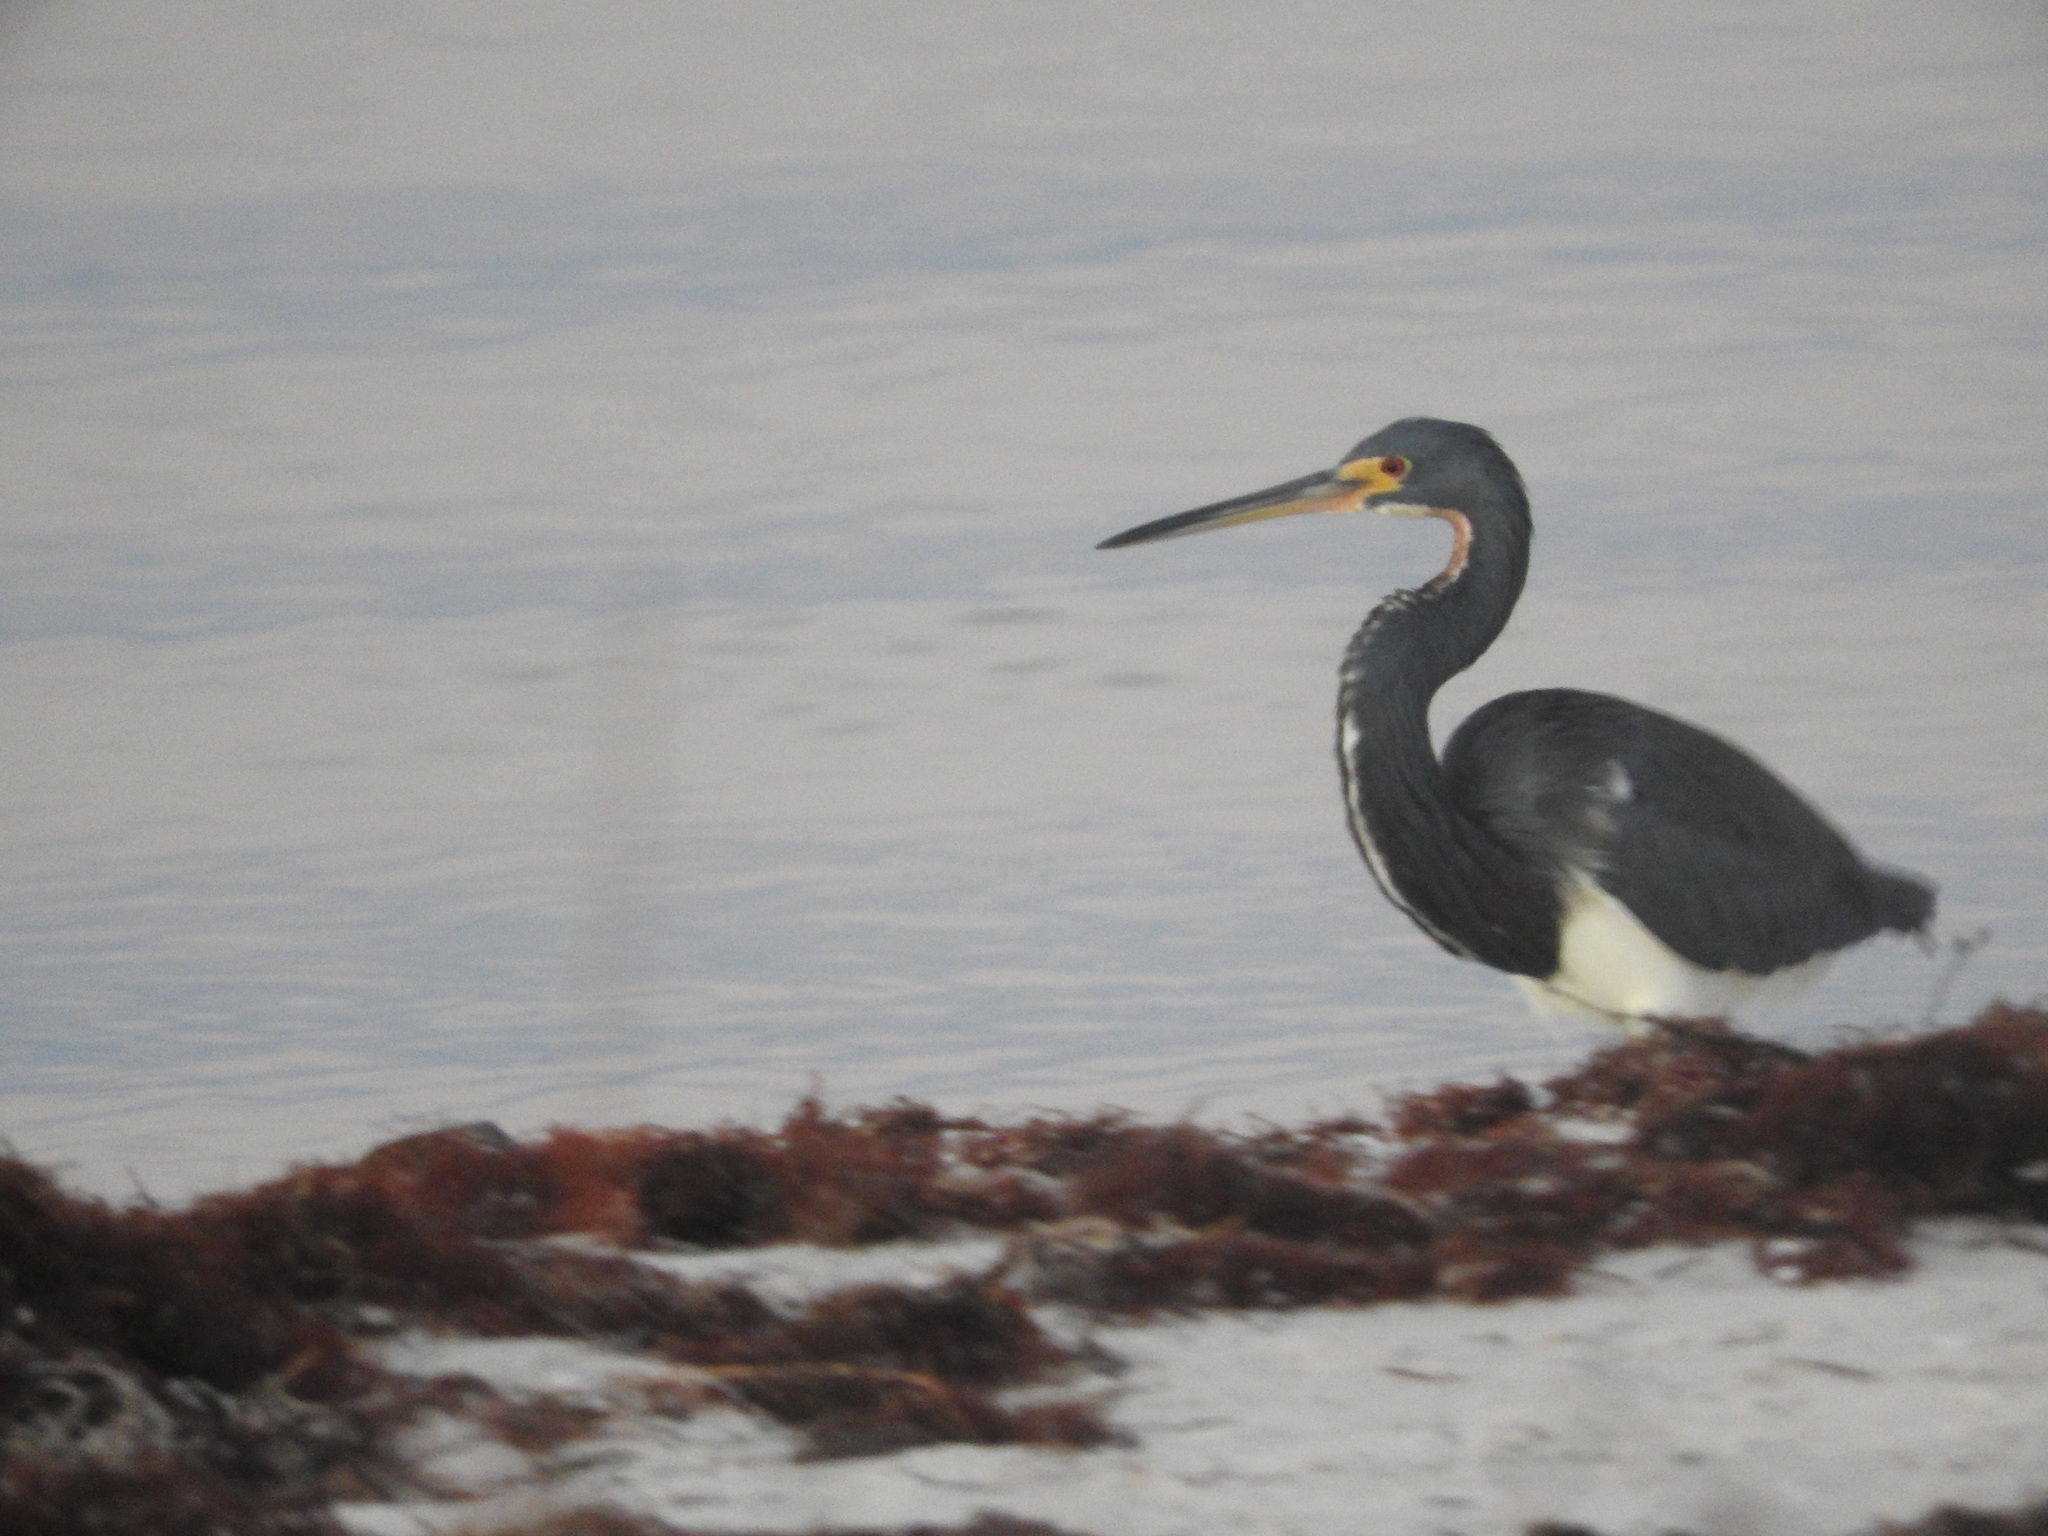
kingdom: Animalia
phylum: Chordata
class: Aves
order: Pelecaniformes
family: Ardeidae
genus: Egretta
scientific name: Egretta tricolor
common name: Tricolored heron
